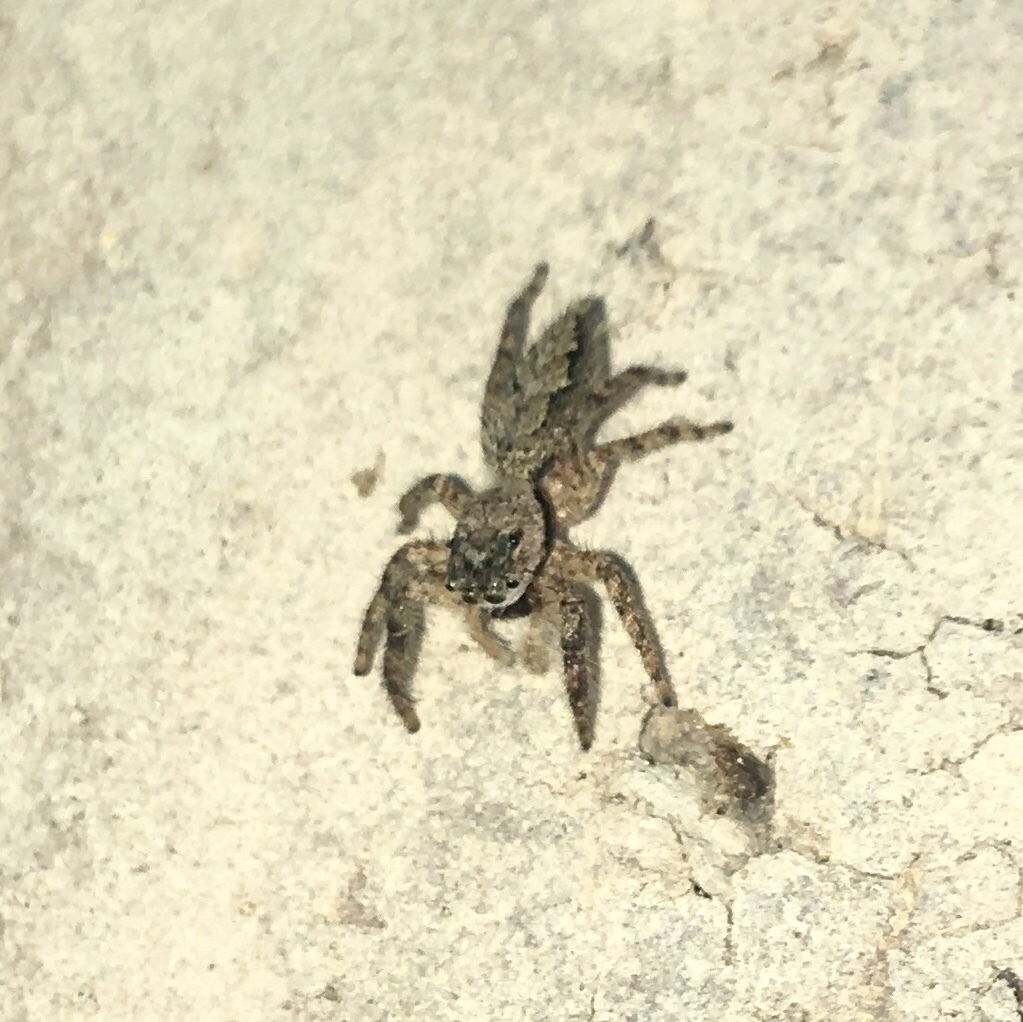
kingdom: Animalia
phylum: Arthropoda
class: Arachnida
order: Araneae
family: Salticidae
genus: Platycryptus
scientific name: Platycryptus undatus
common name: Tan jumping spider
